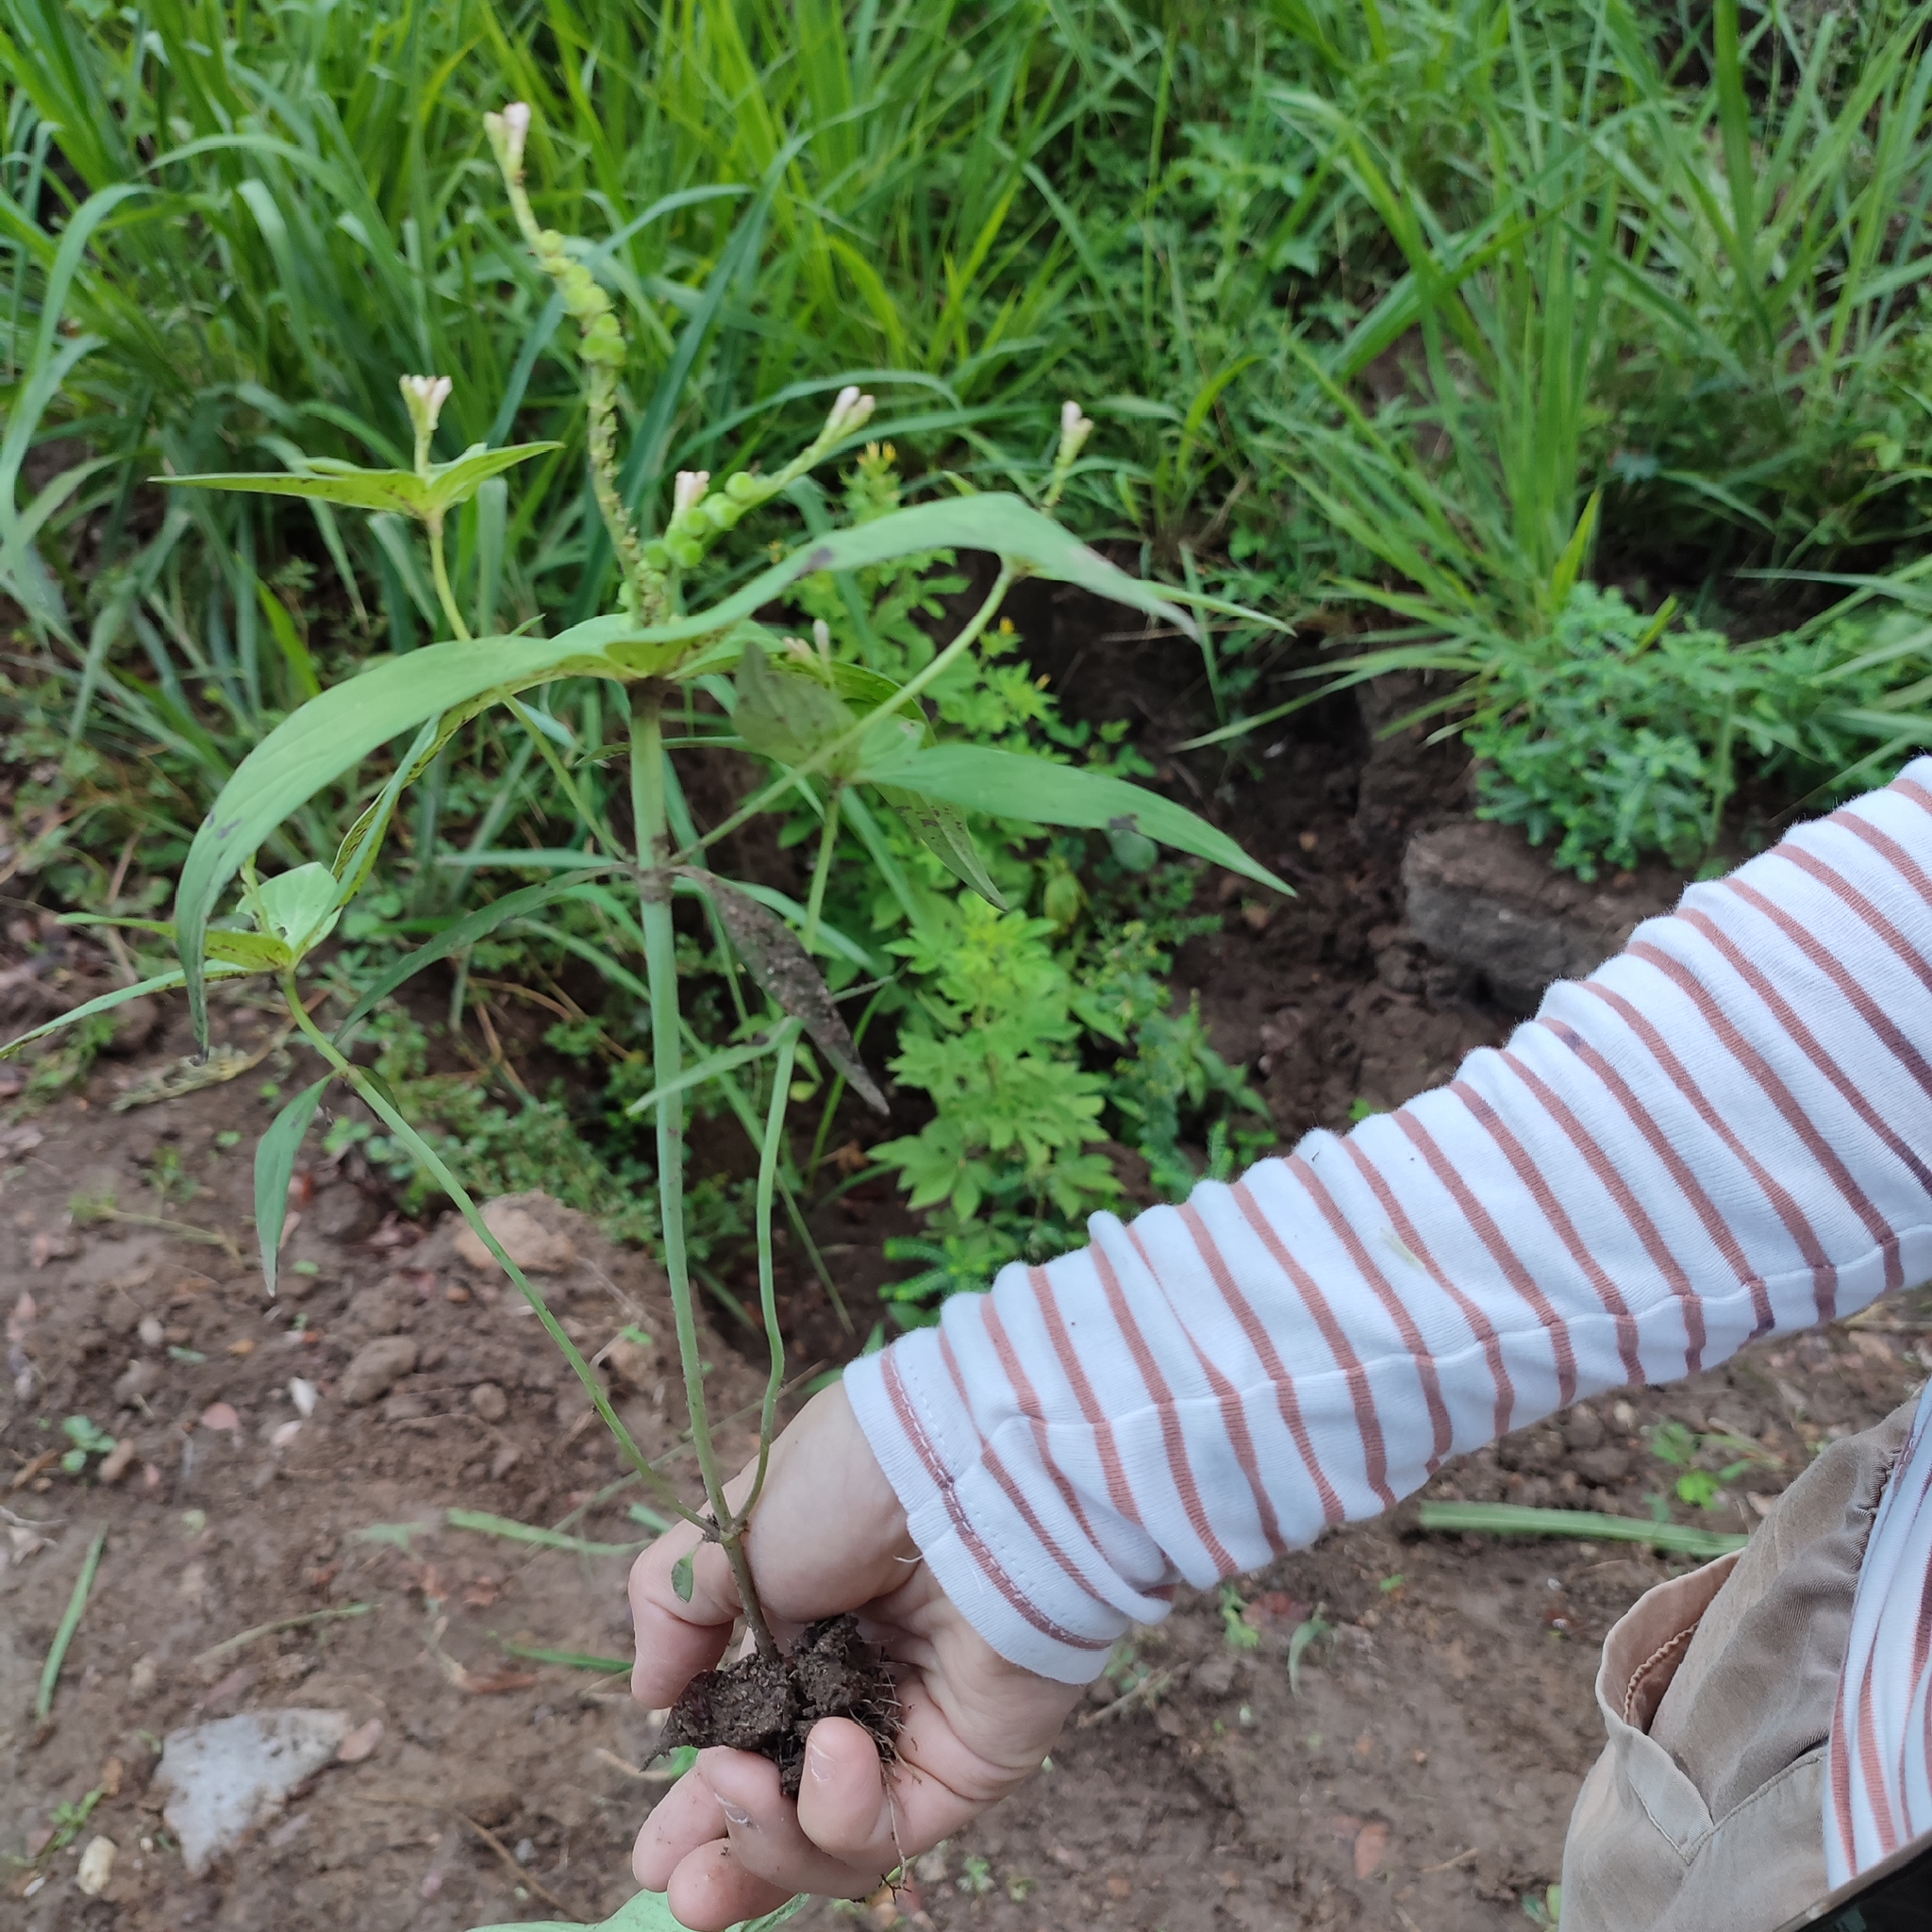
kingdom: Plantae
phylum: Tracheophyta
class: Magnoliopsida
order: Gentianales
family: Loganiaceae
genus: Spigelia
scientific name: Spigelia anthelmia
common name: West indian-pink
